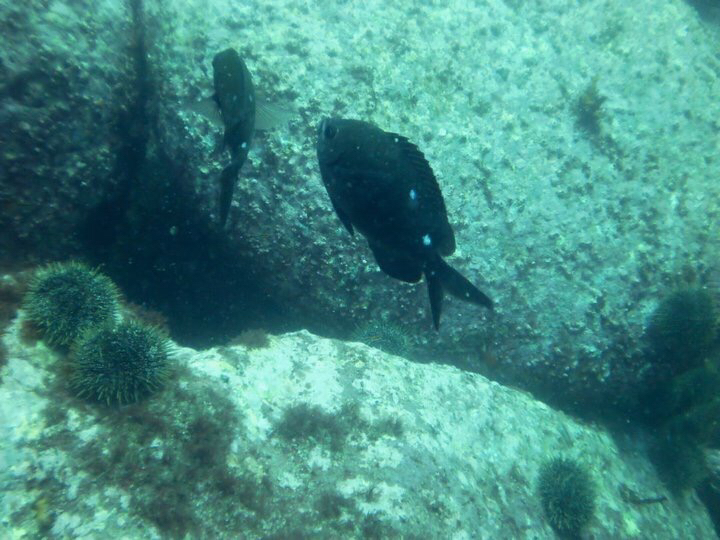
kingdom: Animalia
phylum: Chordata
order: Perciformes
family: Pomacentridae
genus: Chromis
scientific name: Chromis dispilus
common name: Demoiselle
